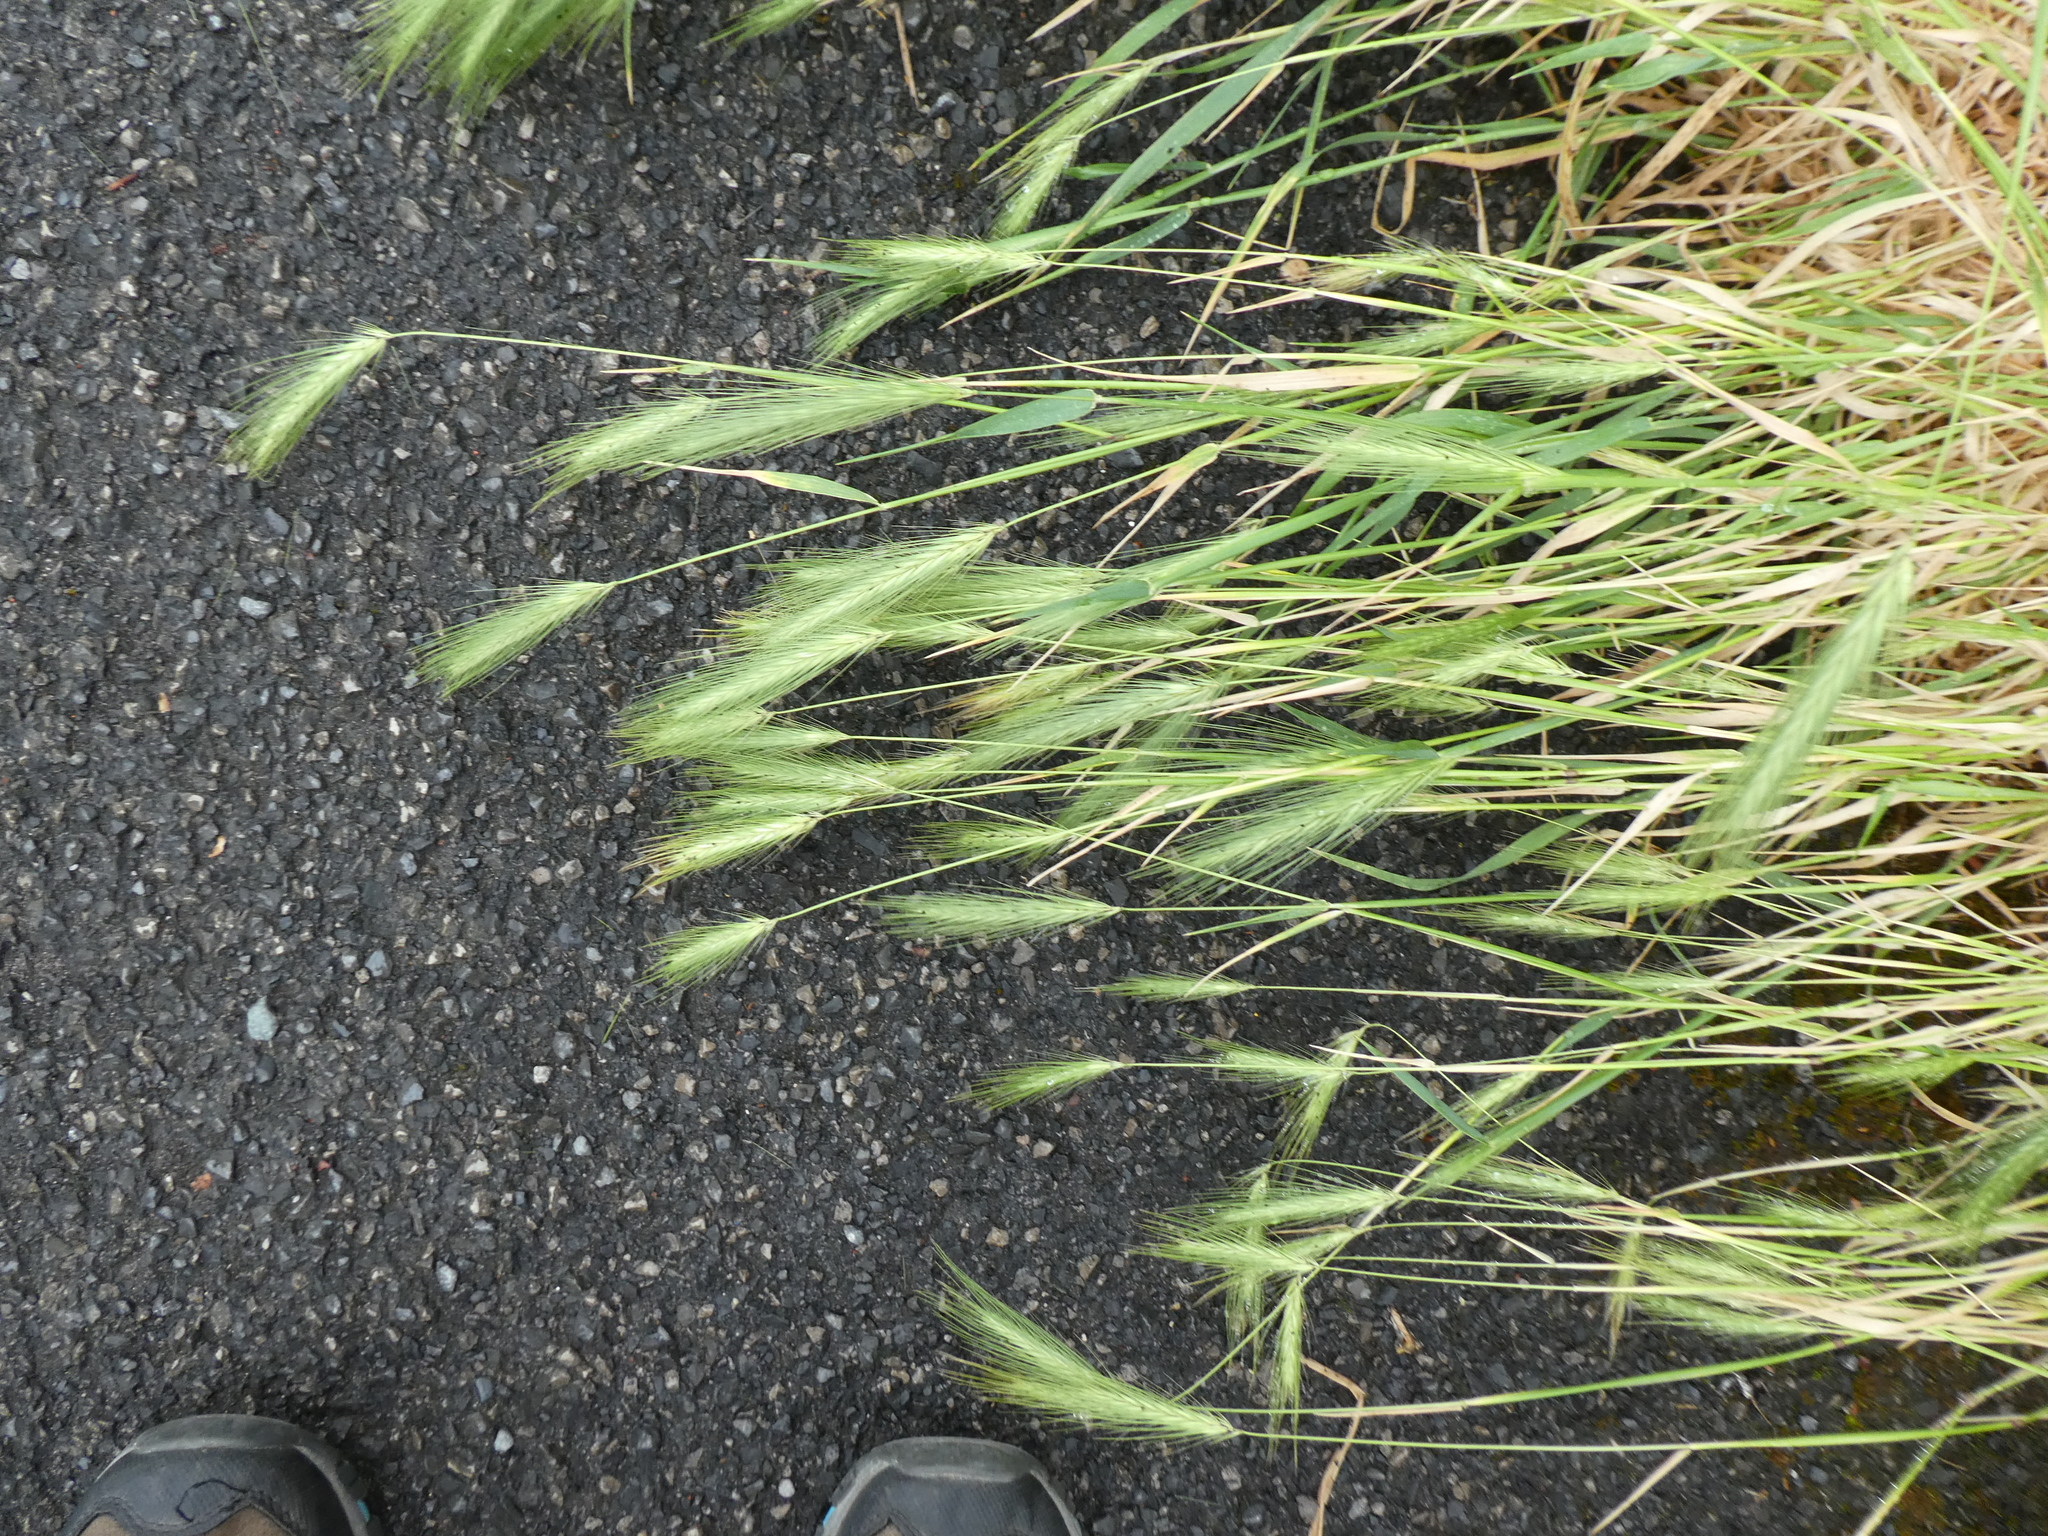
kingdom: Plantae
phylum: Tracheophyta
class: Liliopsida
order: Poales
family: Poaceae
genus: Hordeum
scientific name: Hordeum murinum
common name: Wall barley
